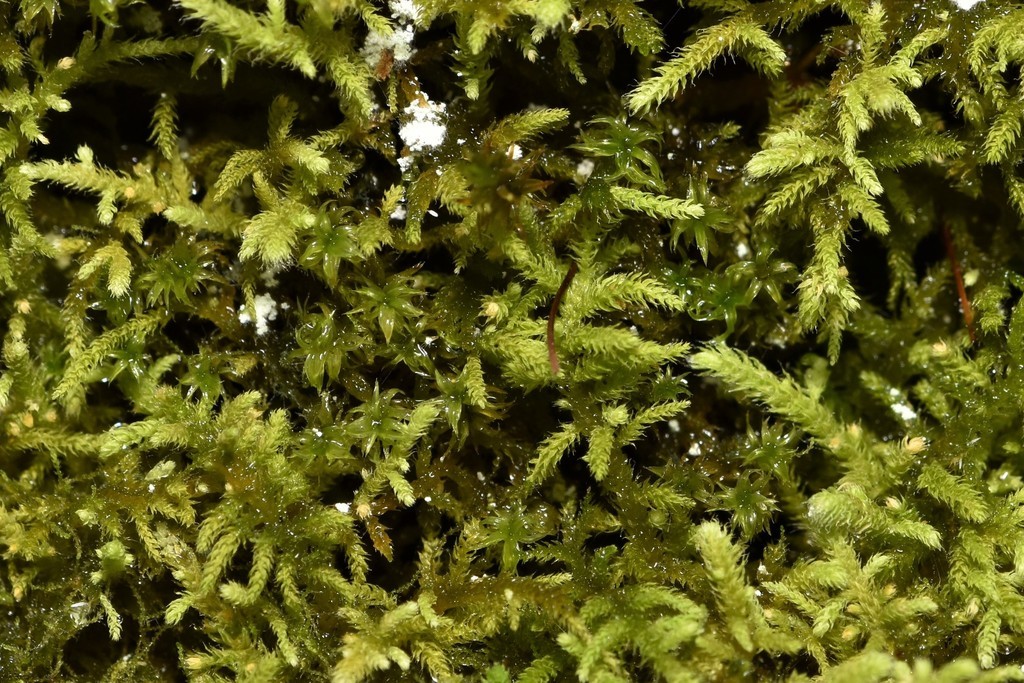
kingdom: Plantae
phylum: Bryophyta
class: Bryopsida
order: Hypnales
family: Brachytheciaceae
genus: Claopodium
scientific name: Claopodium bolanderi
